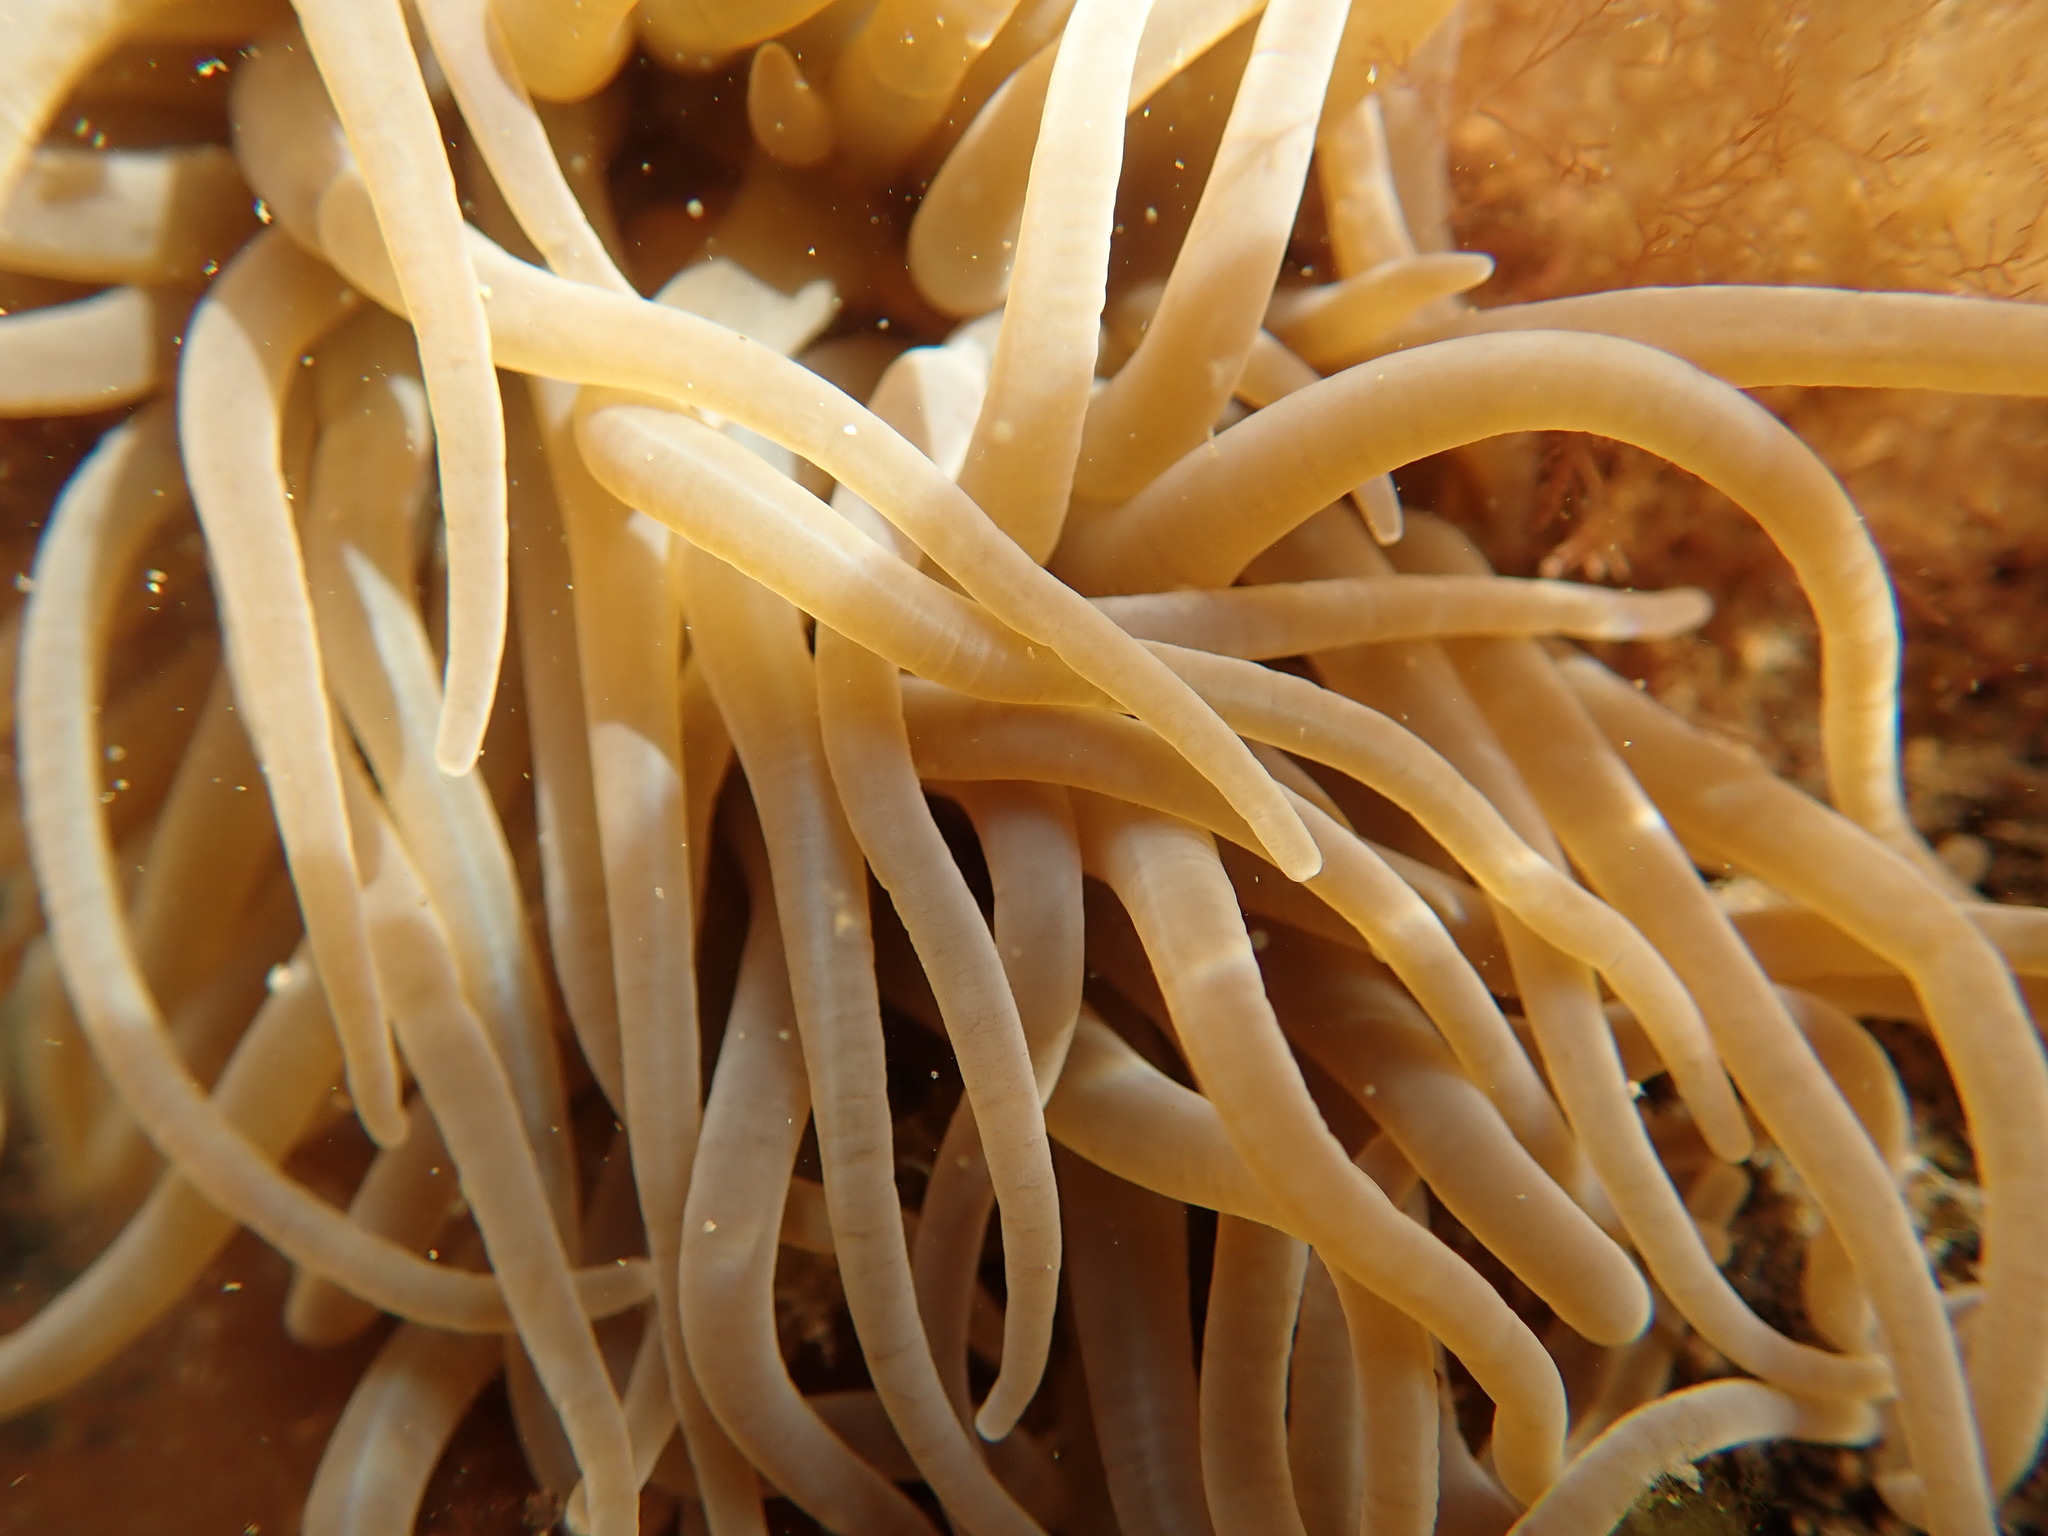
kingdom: Animalia
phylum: Cnidaria
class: Anthozoa
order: Actiniaria
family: Actiniidae
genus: Anemonia
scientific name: Anemonia viridis
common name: Snakelocks anemone
